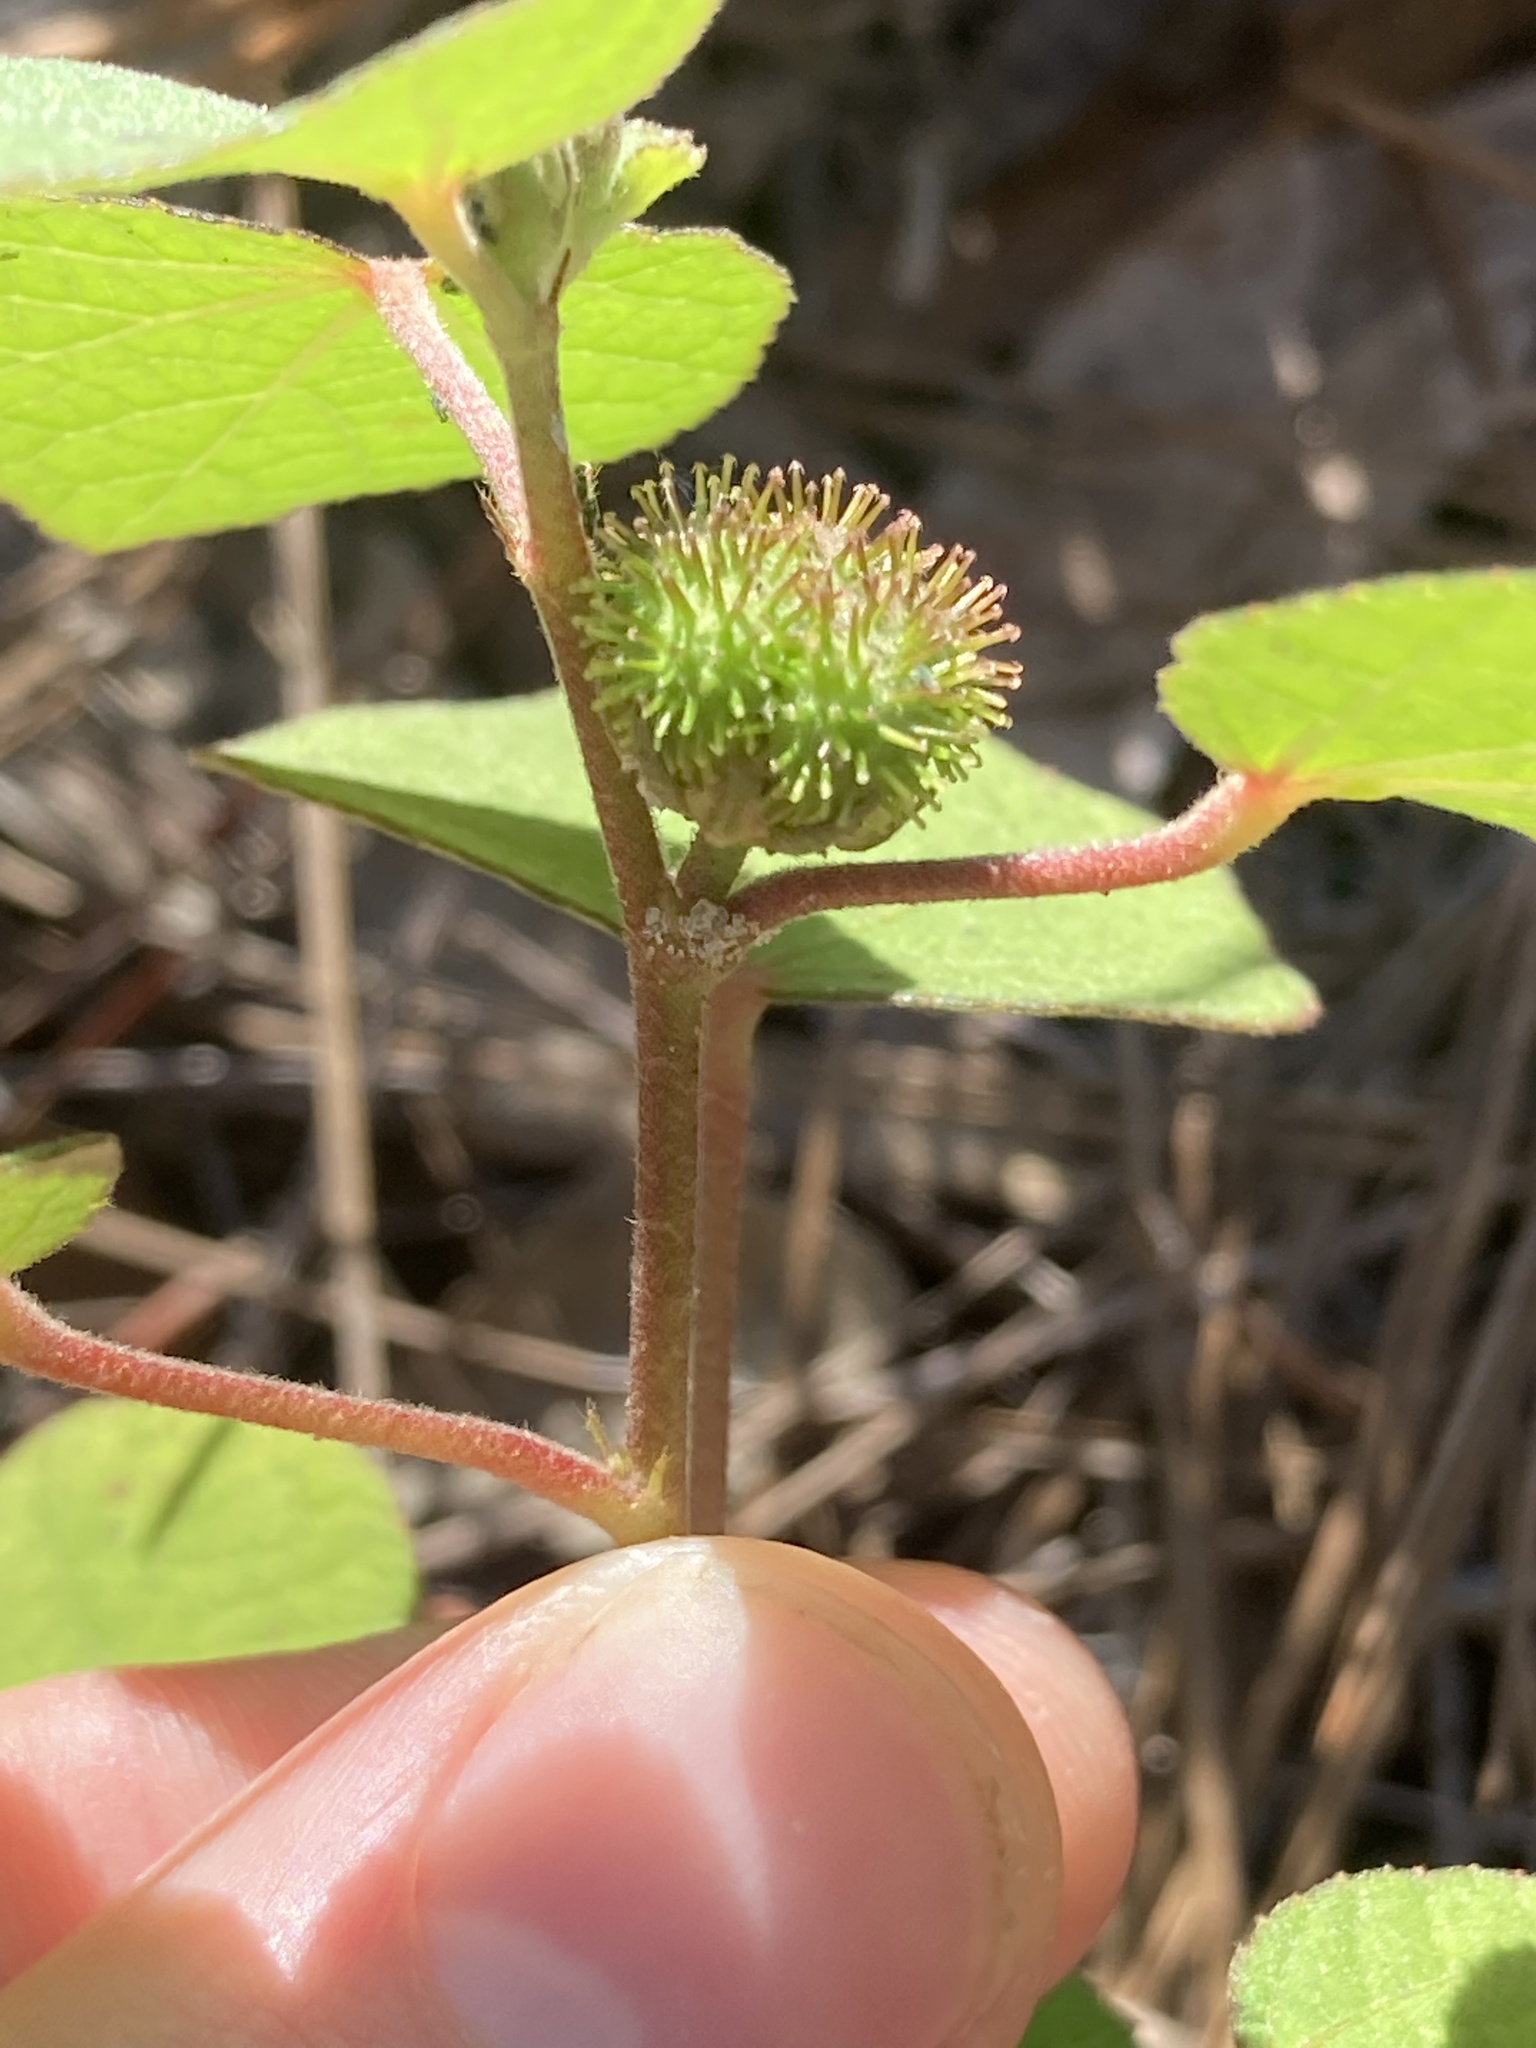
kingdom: Plantae
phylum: Tracheophyta
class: Magnoliopsida
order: Malvales
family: Malvaceae
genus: Urena
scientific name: Urena lobata
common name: Caesarweed
